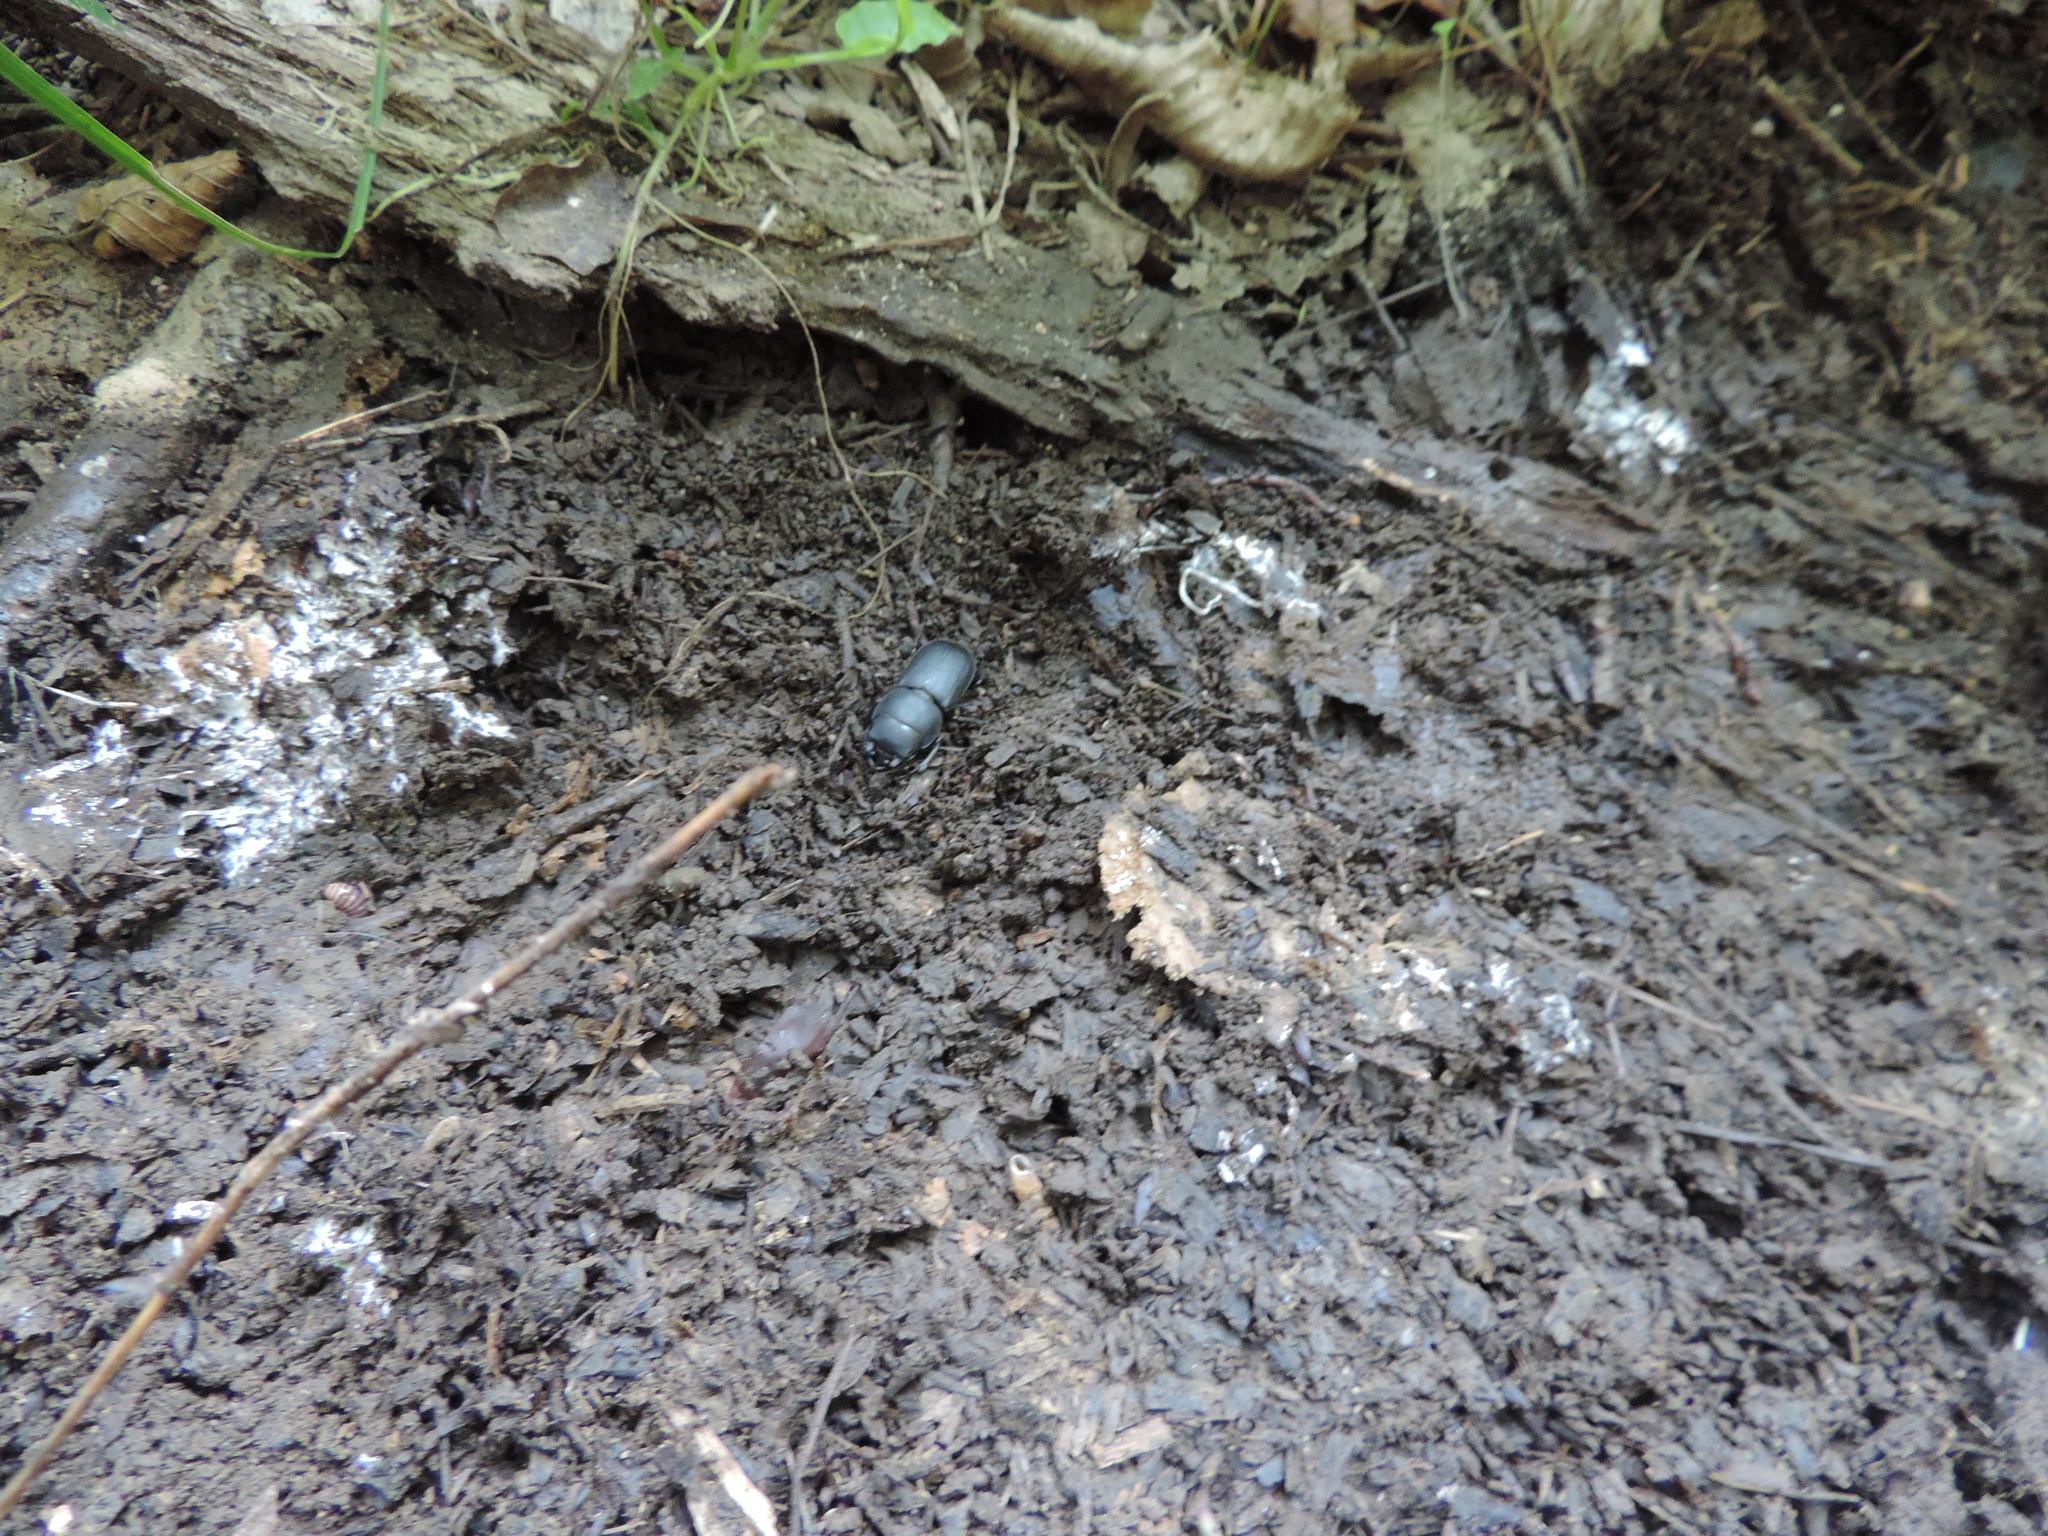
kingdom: Animalia
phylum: Arthropoda
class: Insecta
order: Coleoptera
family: Lucanidae
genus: Dorcus
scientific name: Dorcus parallelipipedus
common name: Lesser stag beetle
